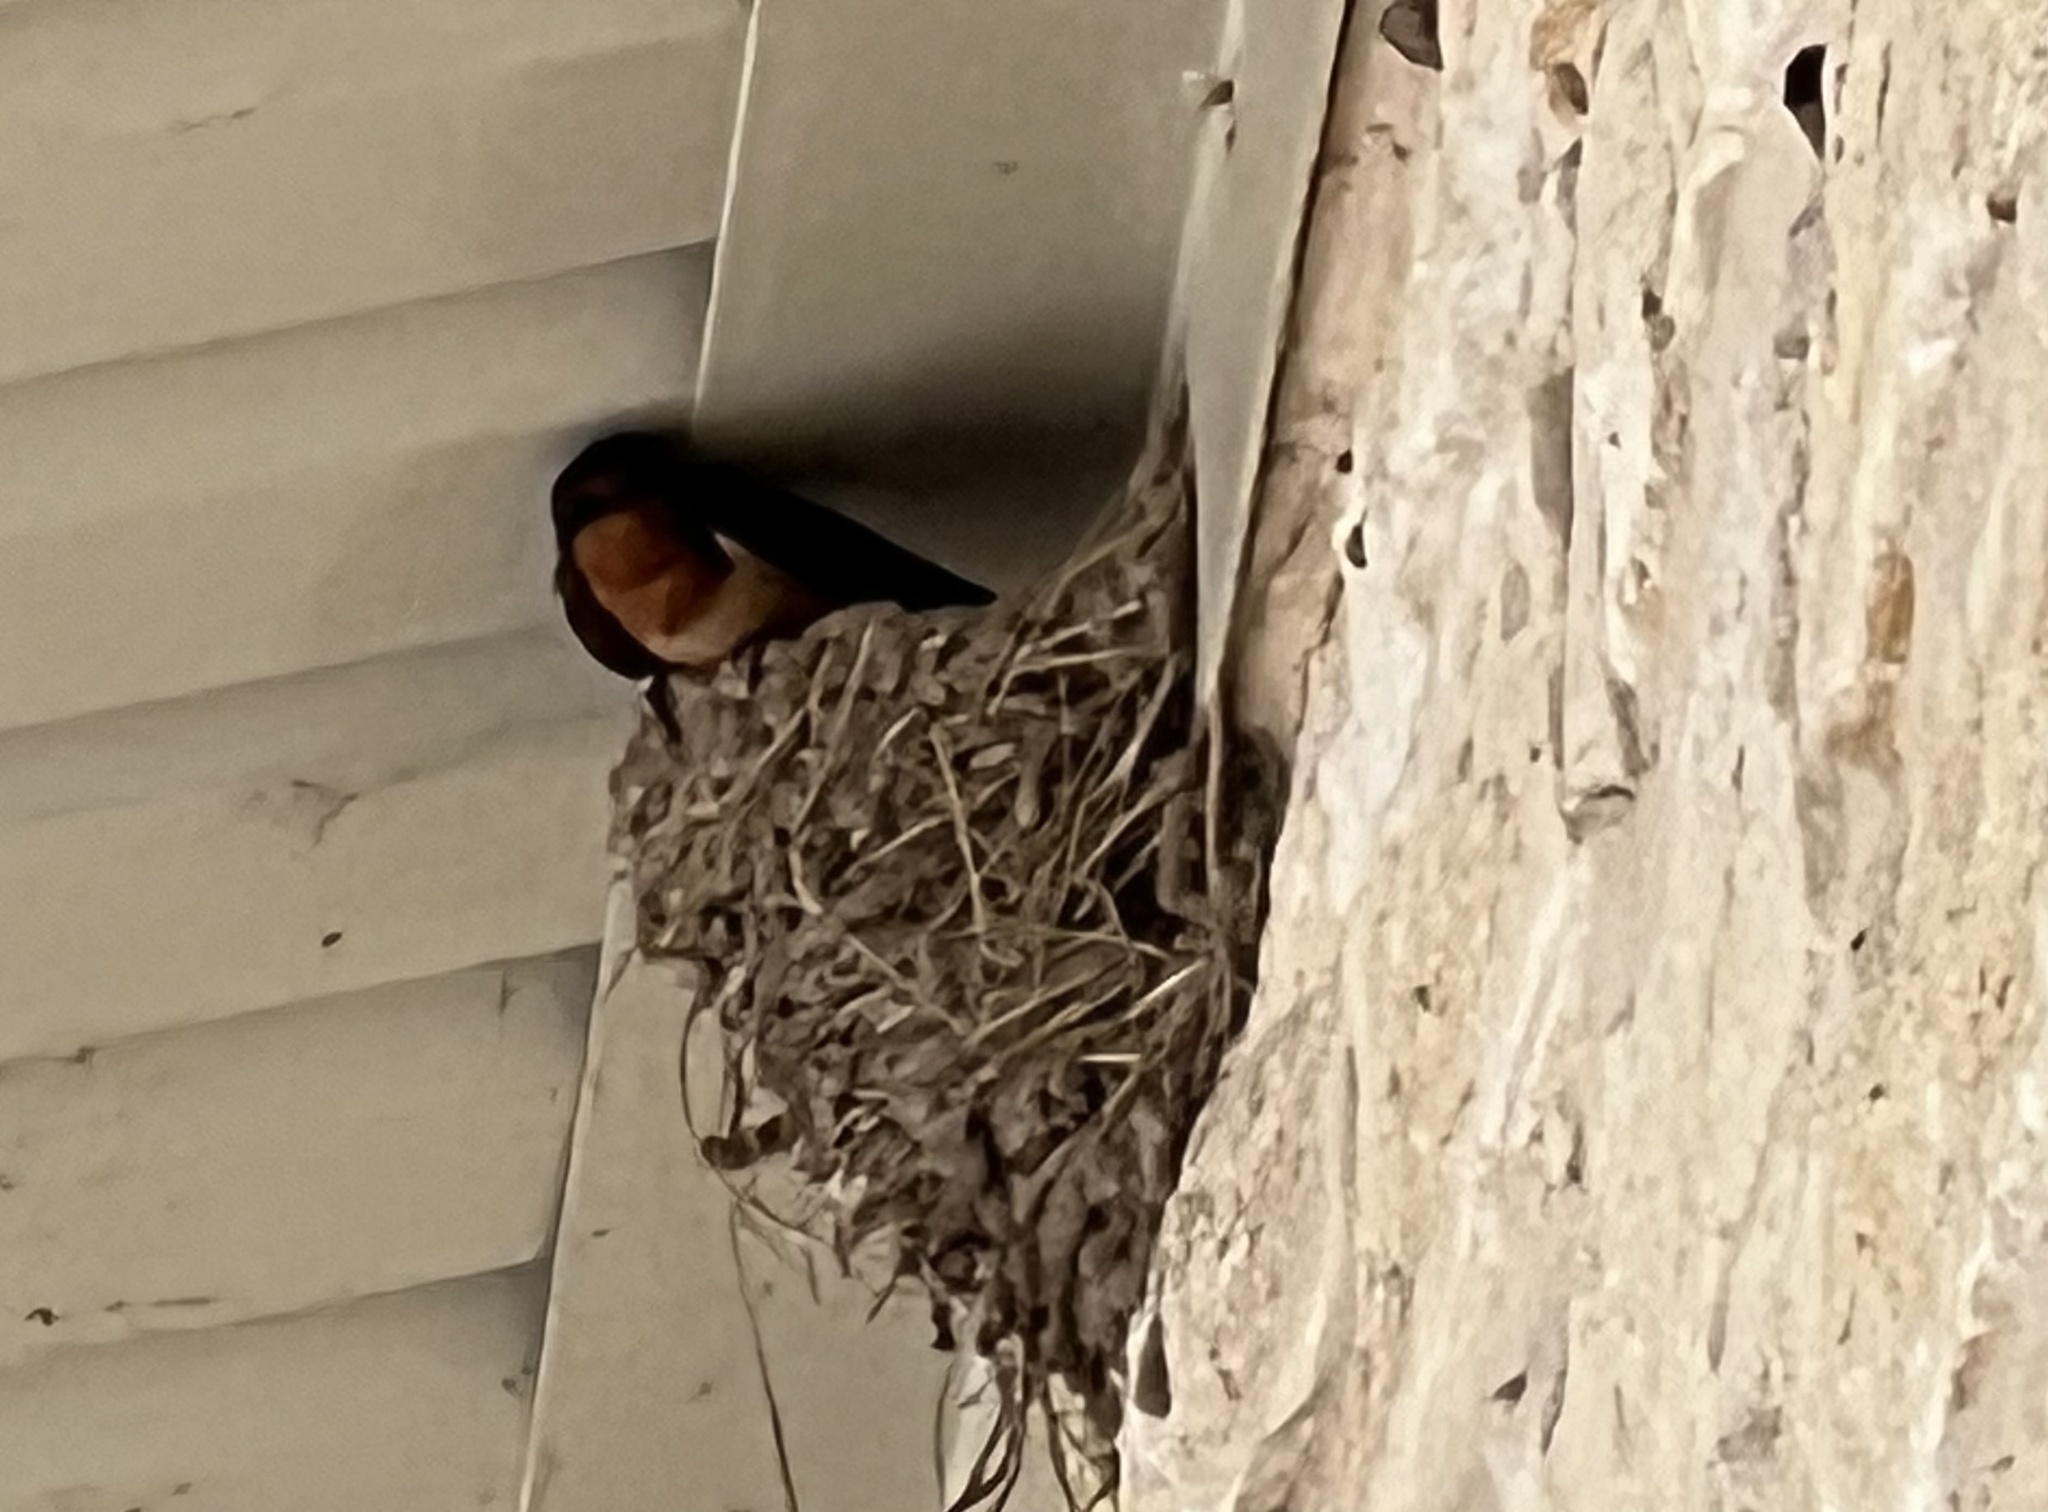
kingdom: Animalia
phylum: Chordata
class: Aves
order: Passeriformes
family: Hirundinidae
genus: Hirundo
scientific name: Hirundo rustica
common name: Barn swallow
